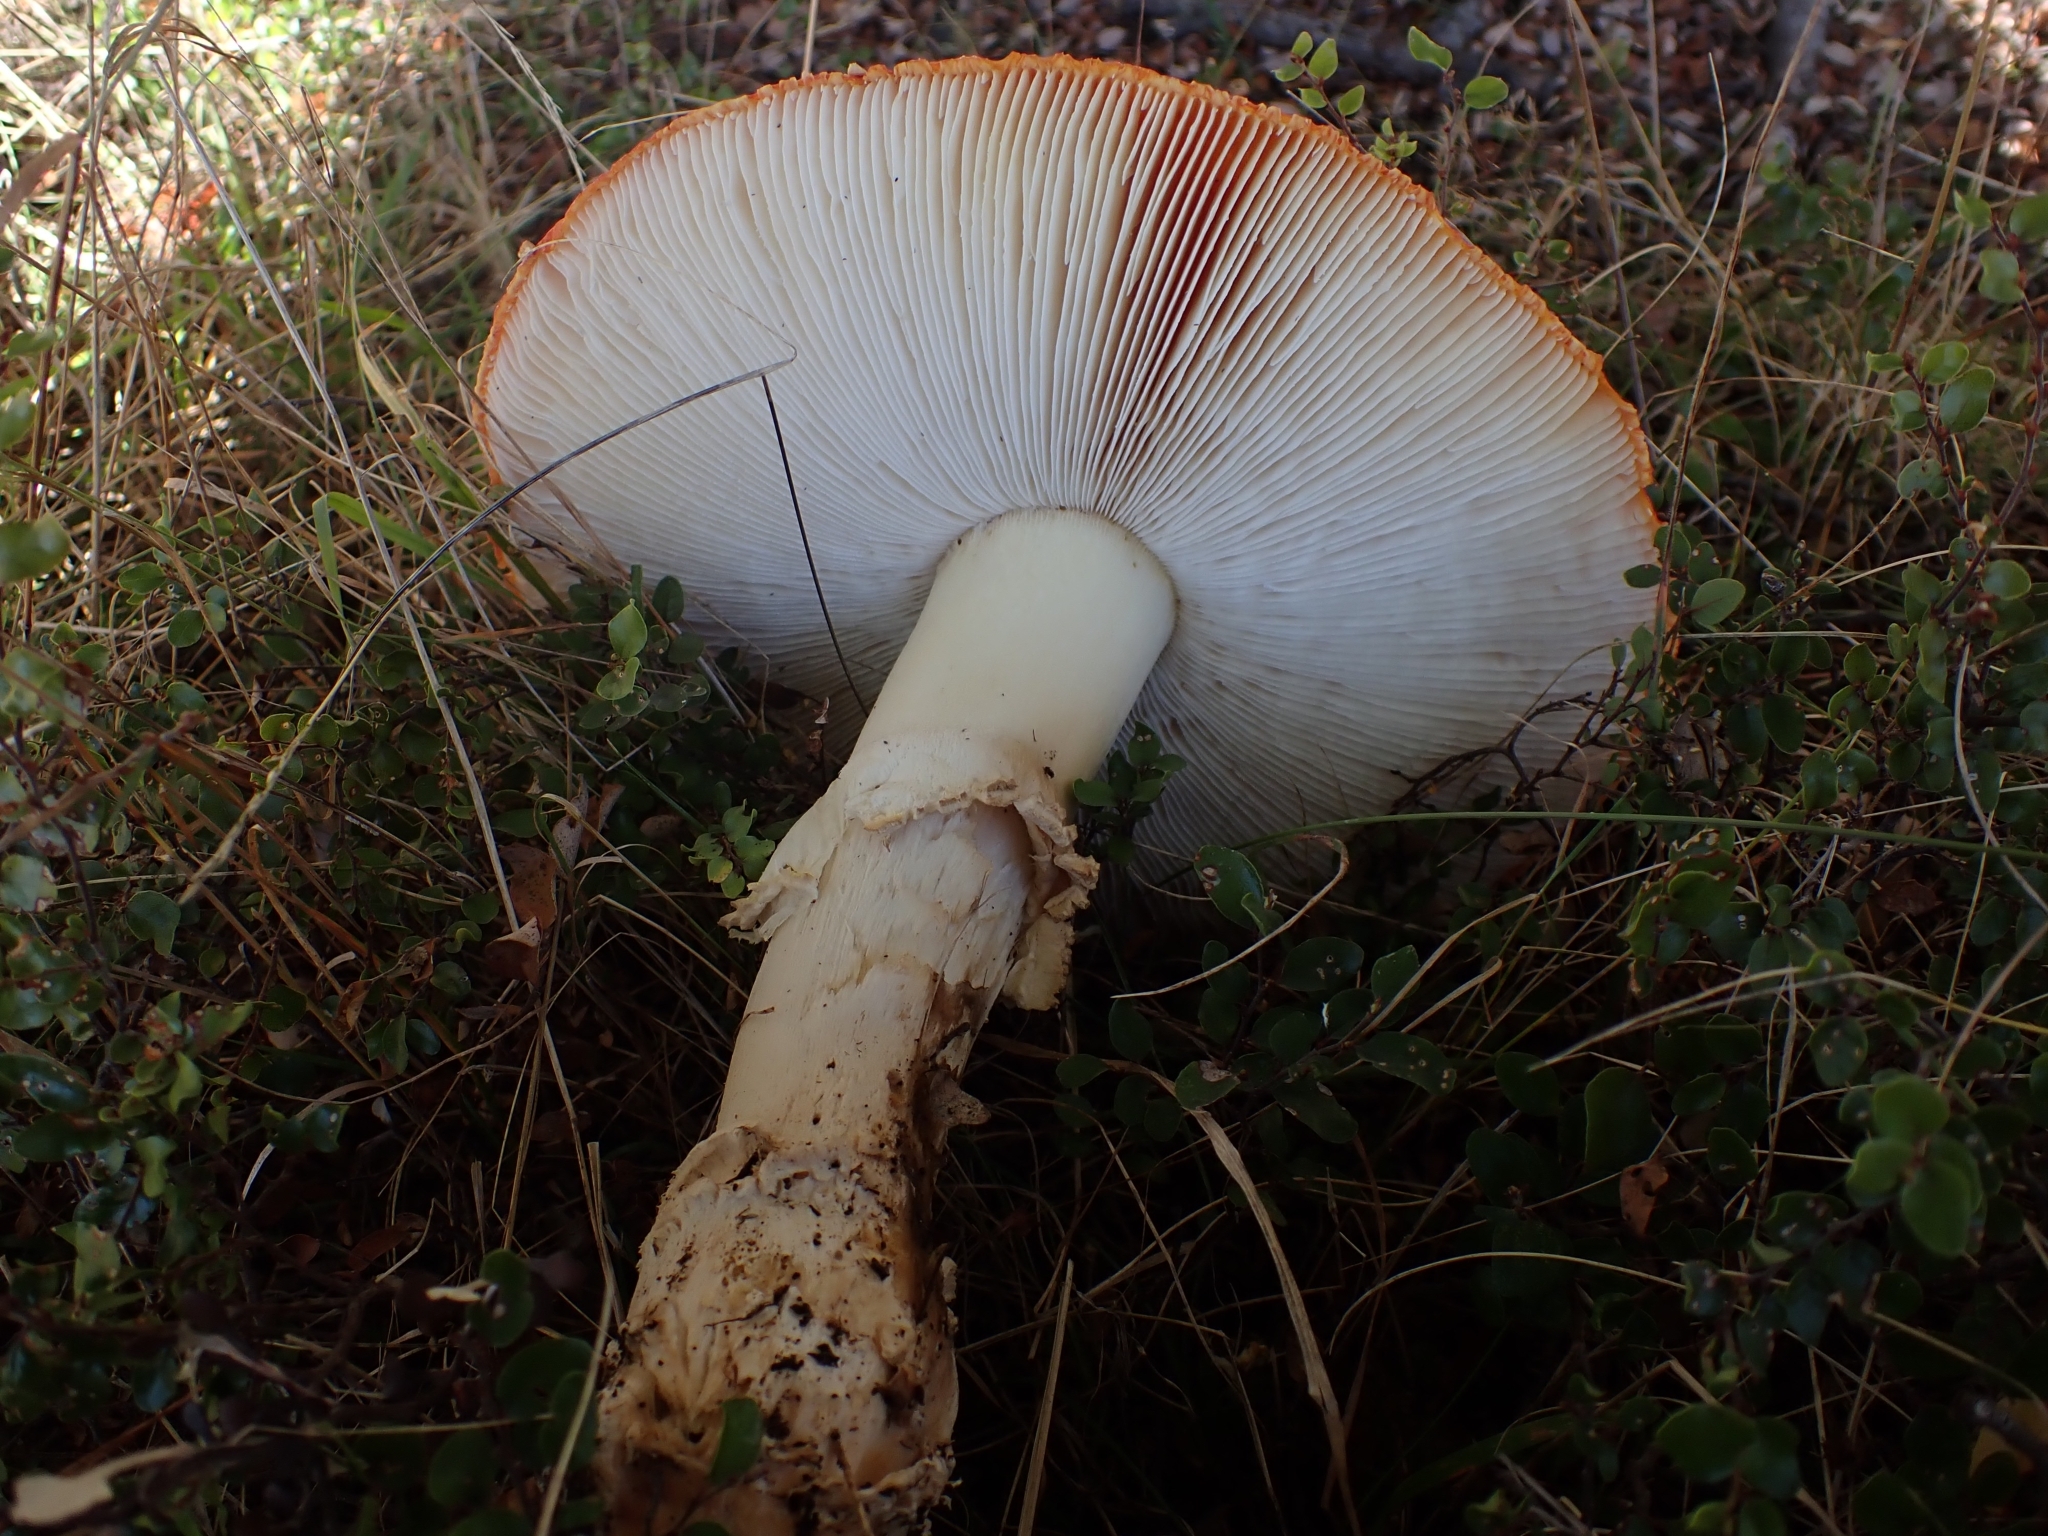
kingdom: Fungi
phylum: Basidiomycota
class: Agaricomycetes
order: Agaricales
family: Amanitaceae
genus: Amanita
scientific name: Amanita muscaria
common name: Fly agaric
